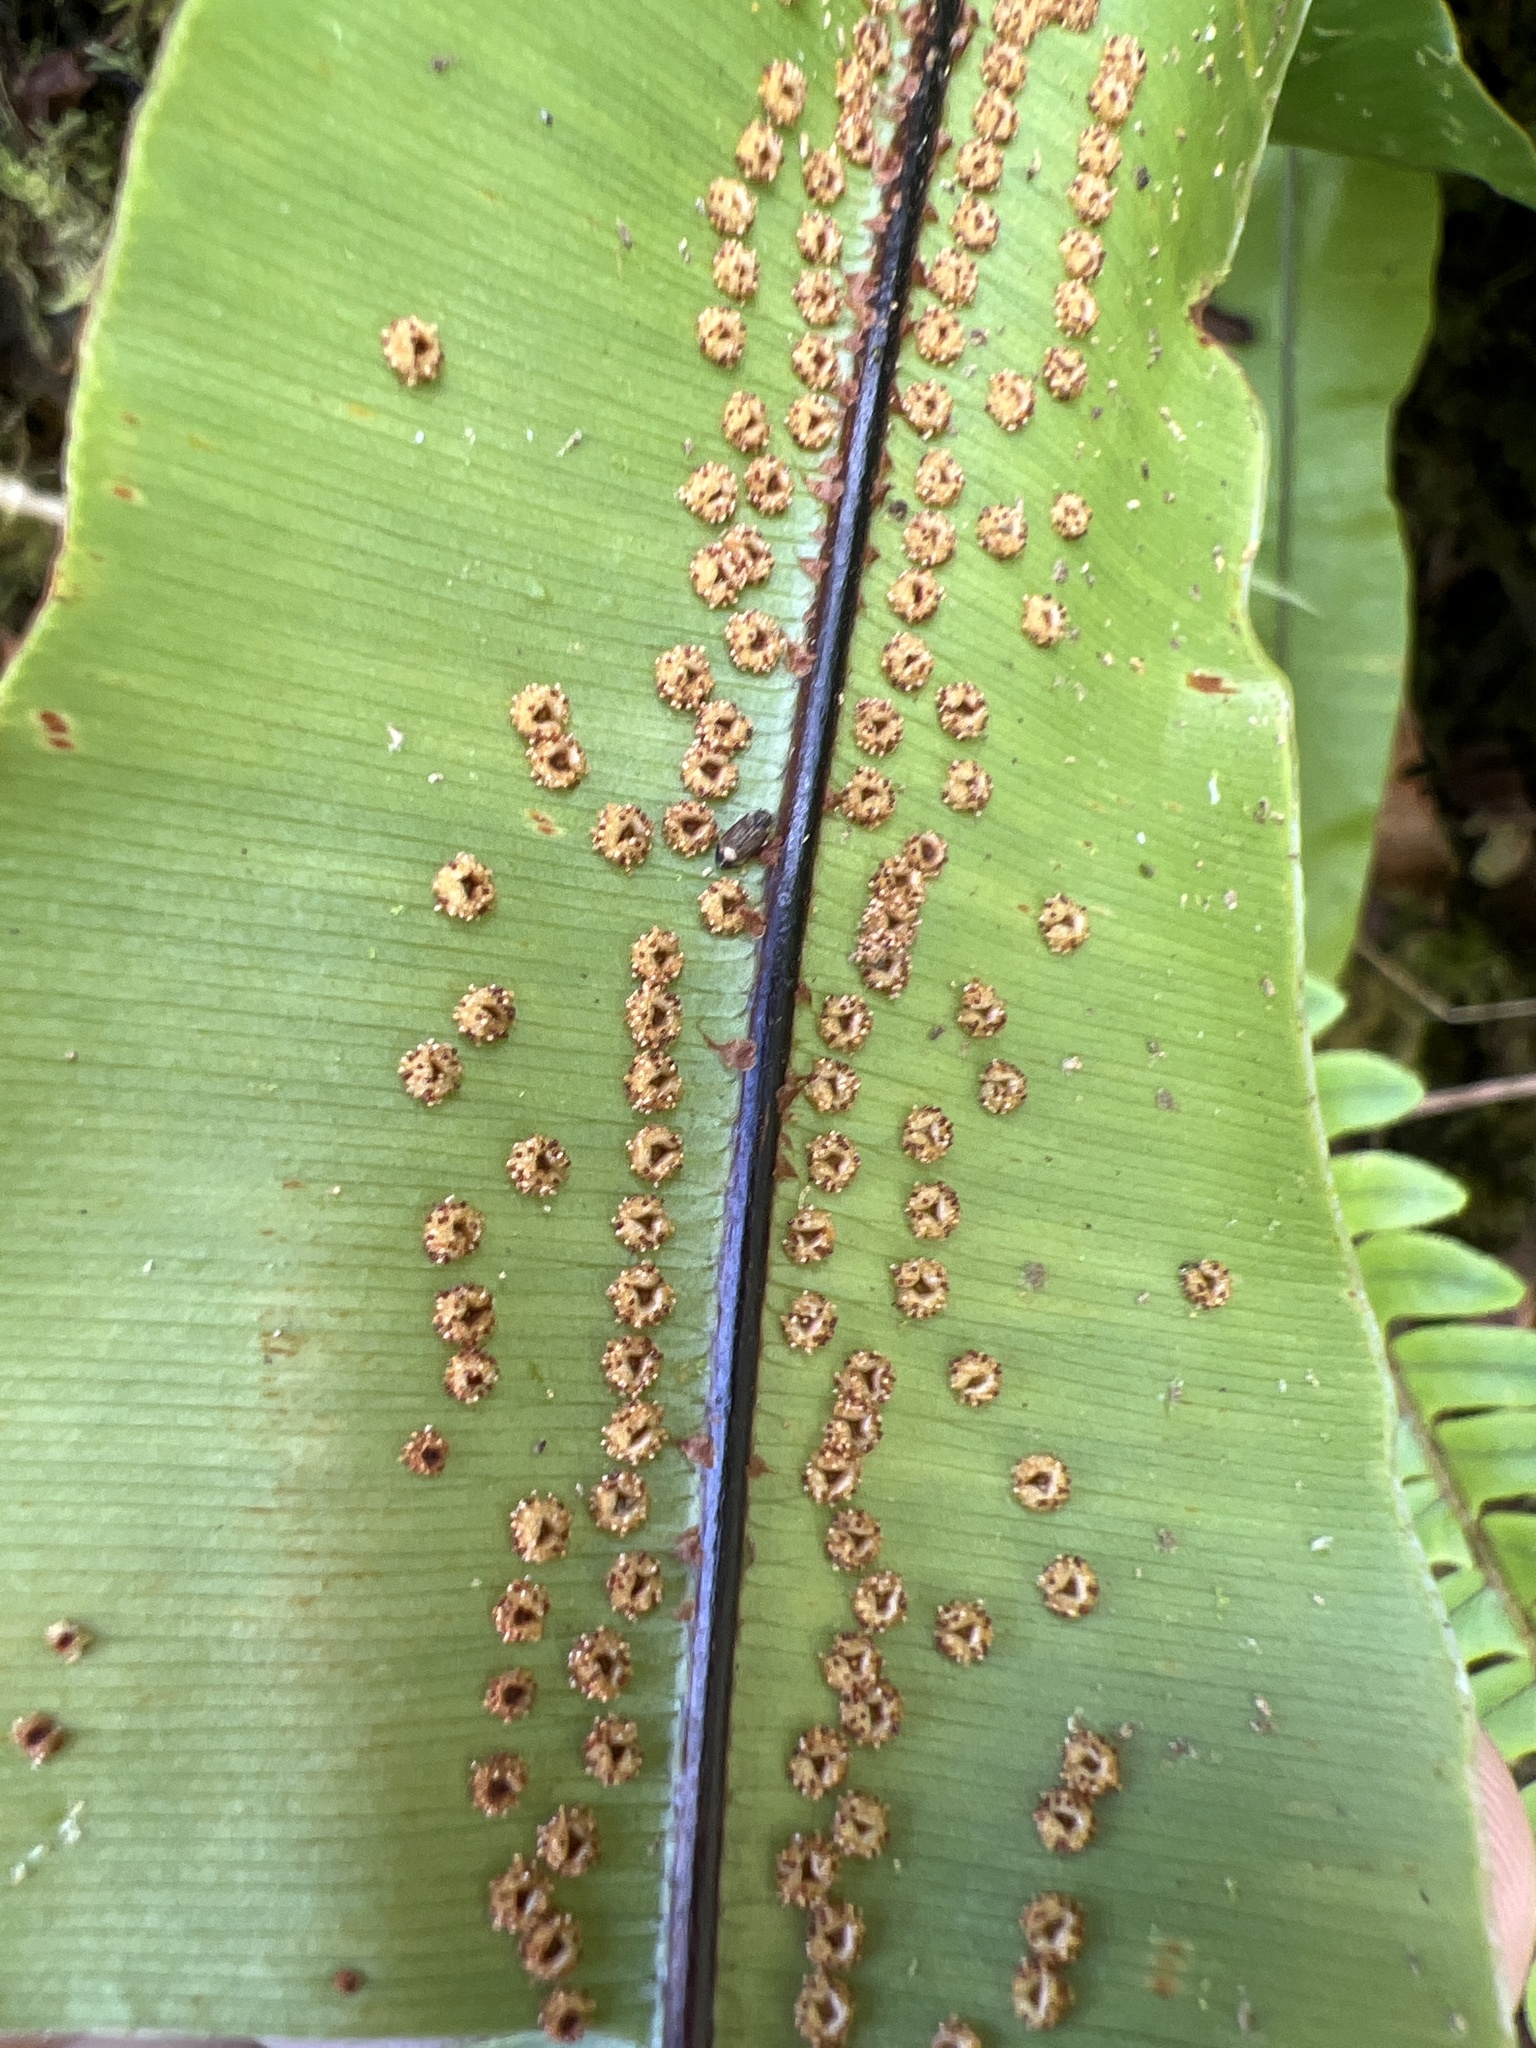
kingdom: Plantae
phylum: Tracheophyta
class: Polypodiopsida
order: Polypodiales
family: Oleandraceae
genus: Oleandra
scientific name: Oleandra articulata
